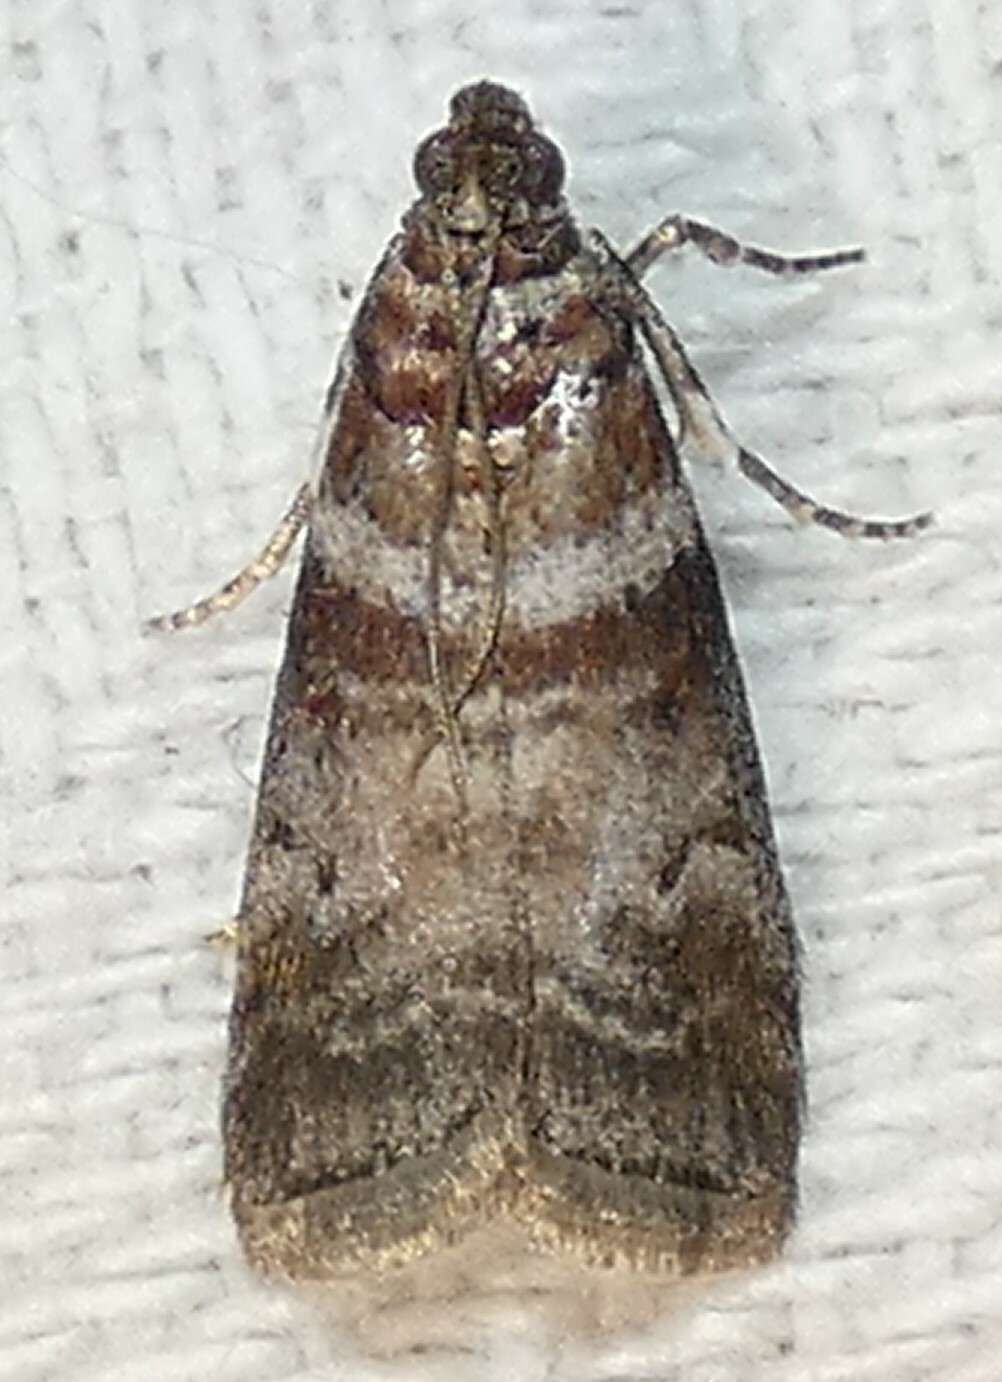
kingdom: Animalia
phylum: Arthropoda
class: Insecta
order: Lepidoptera
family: Pyralidae
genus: Sciota
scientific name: Sciota uvinella
